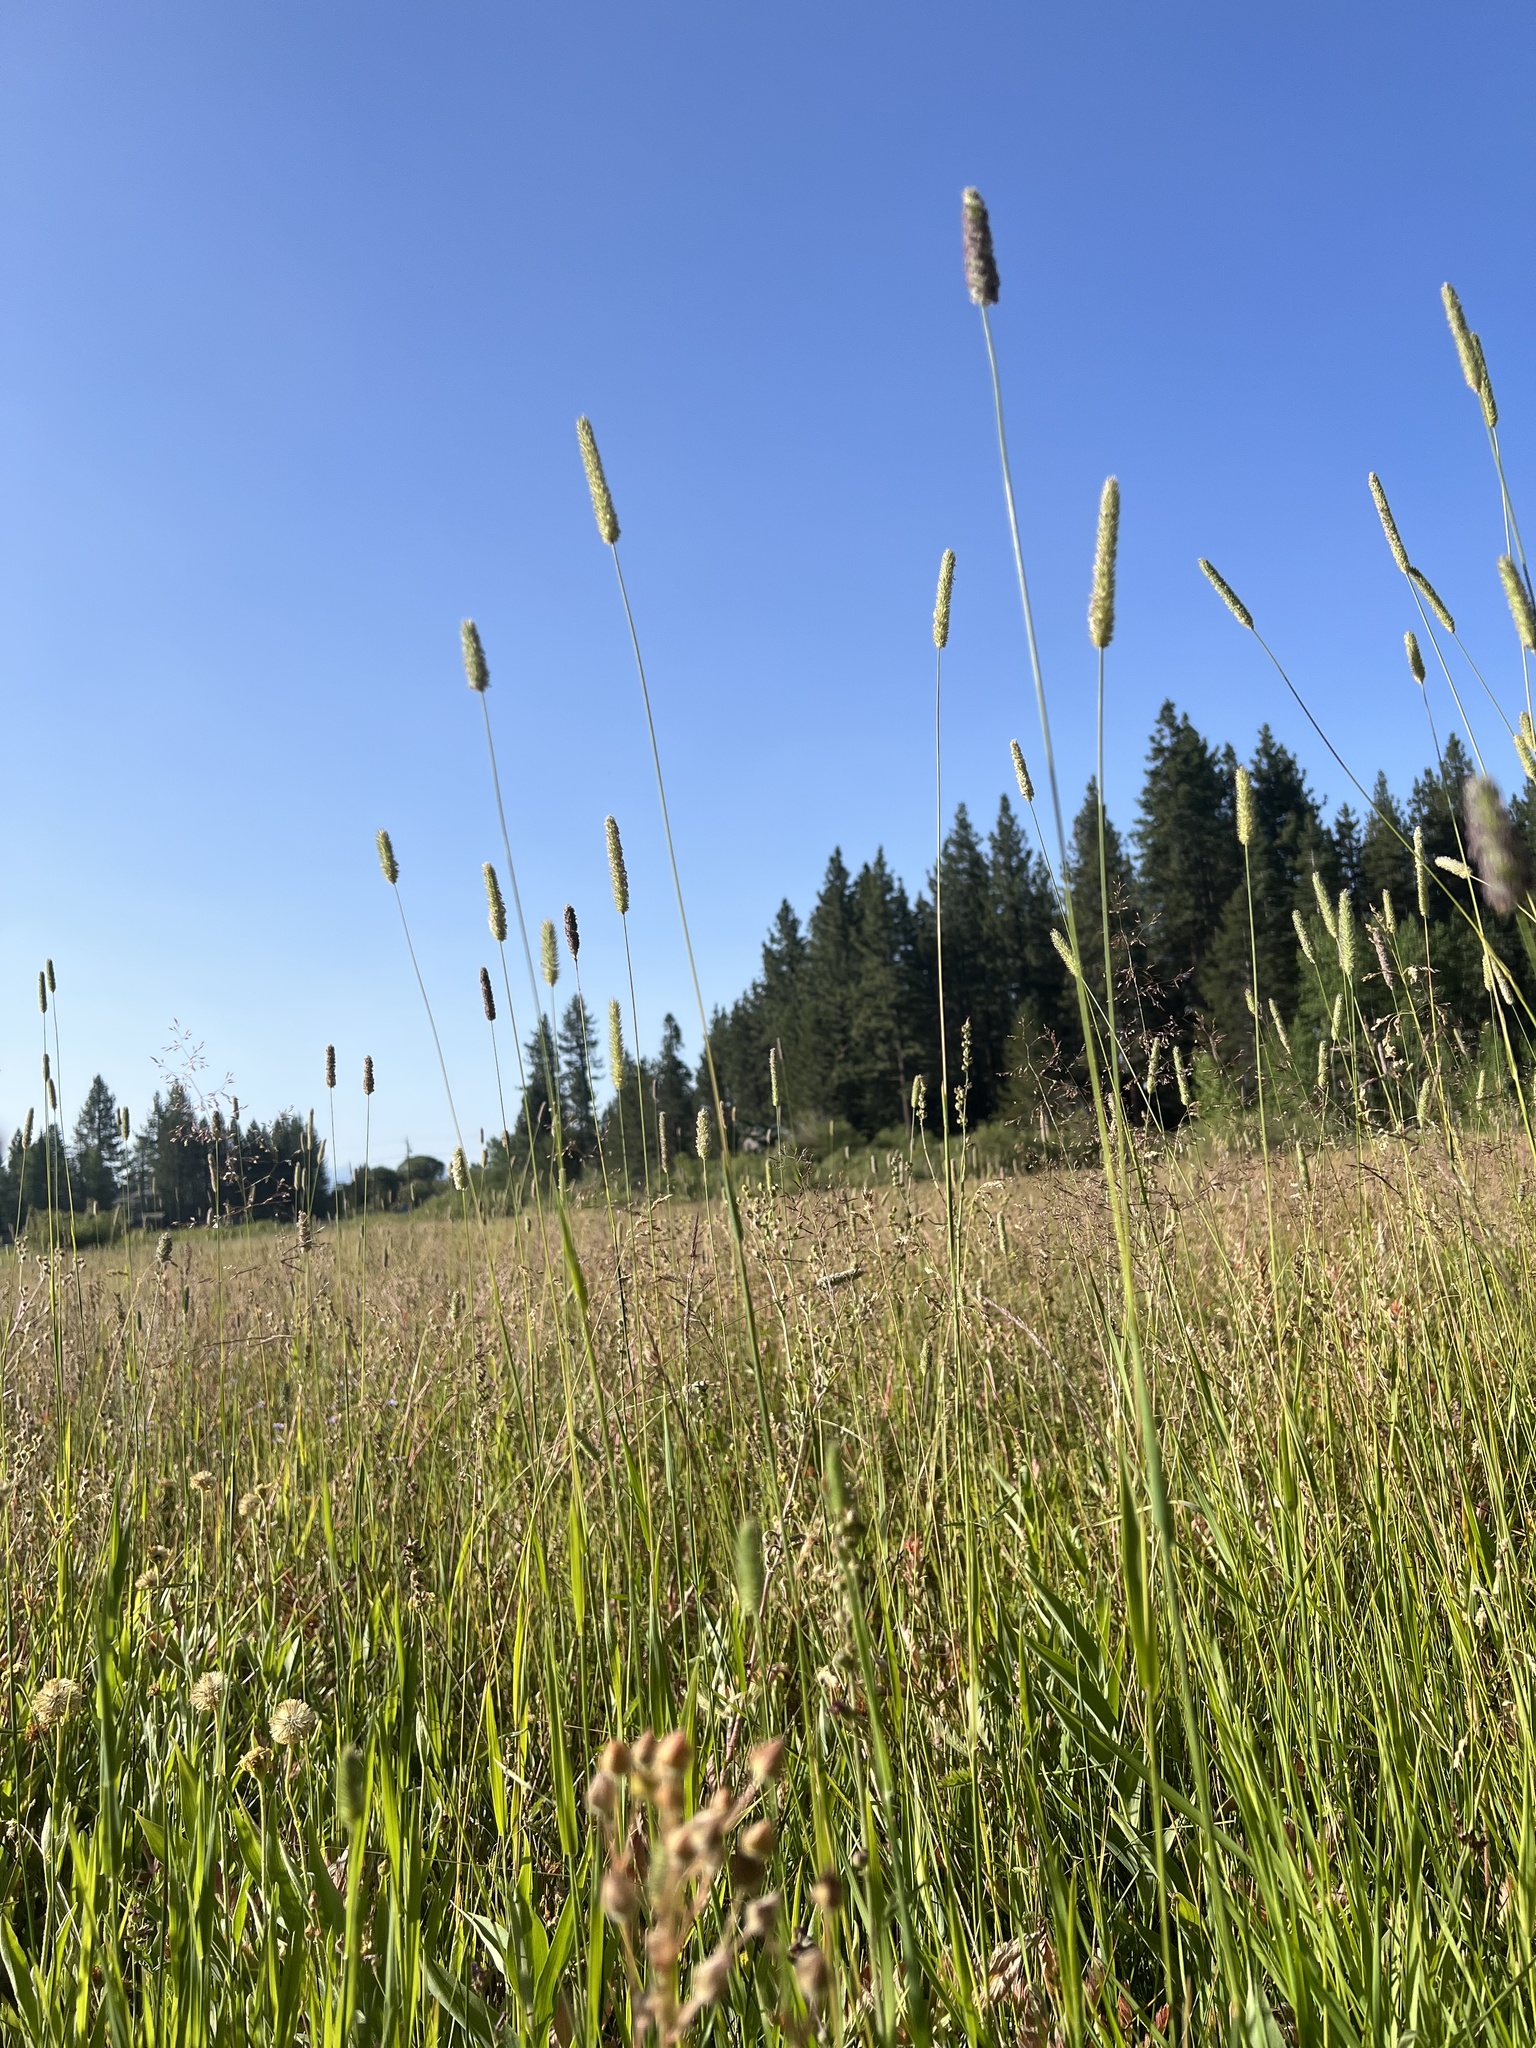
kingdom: Plantae
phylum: Tracheophyta
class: Liliopsida
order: Poales
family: Poaceae
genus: Phleum
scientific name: Phleum pratense
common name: Timothy grass
